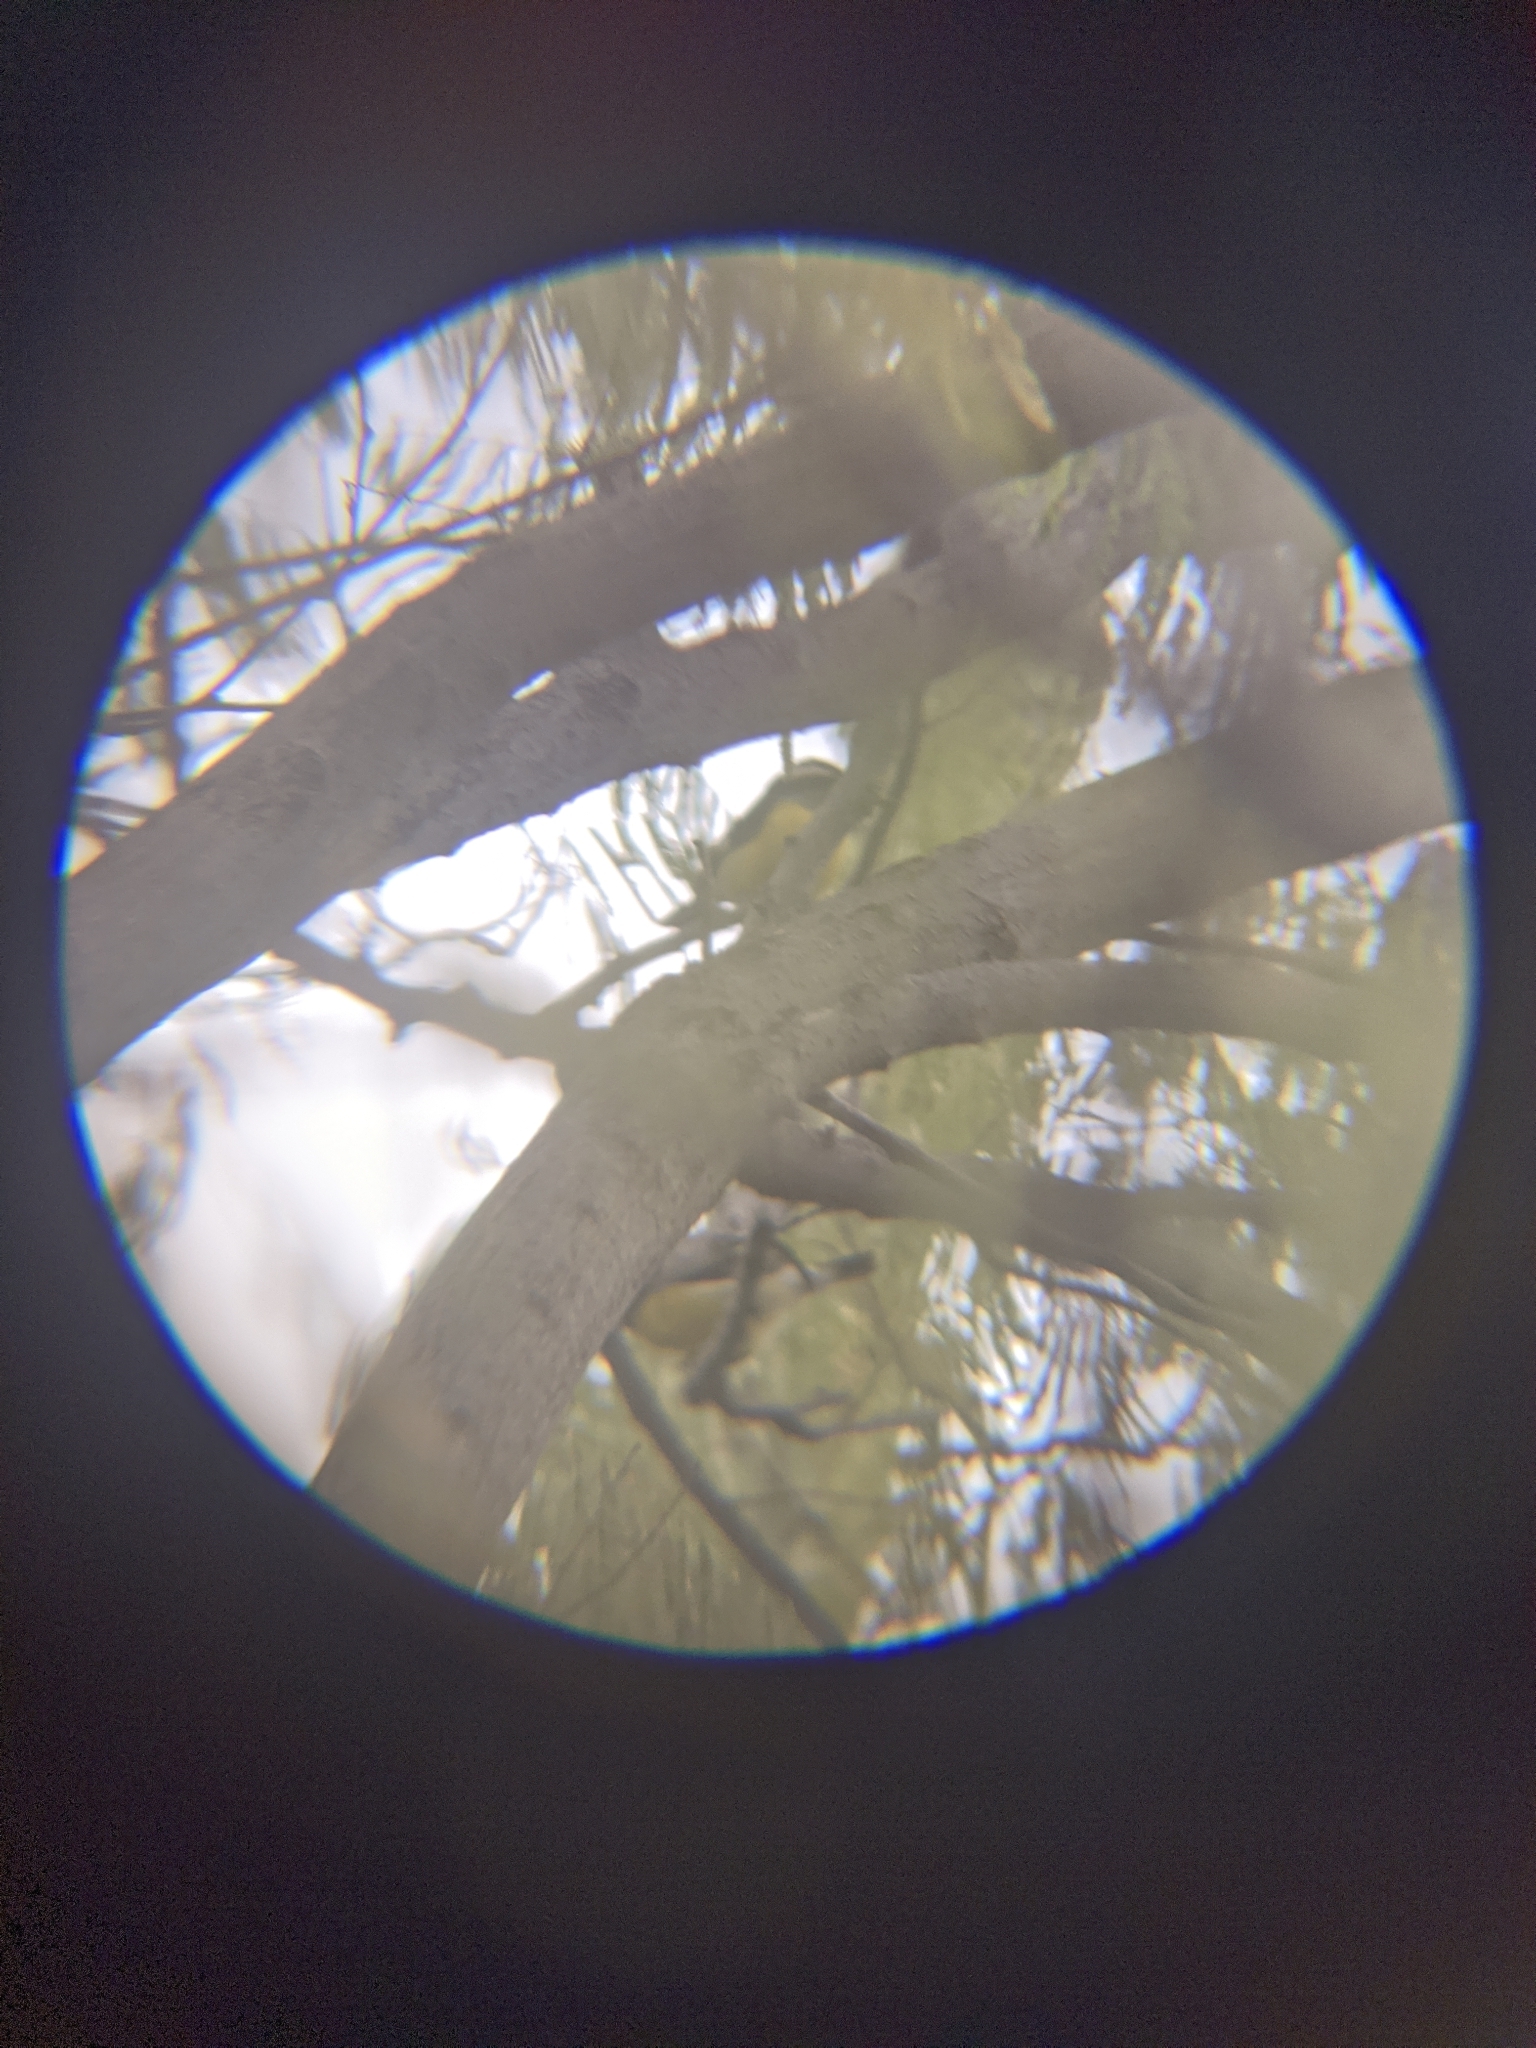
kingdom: Animalia
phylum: Chordata
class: Aves
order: Passeriformes
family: Thraupidae
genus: Coereba
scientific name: Coereba flaveola
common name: Bananaquit
